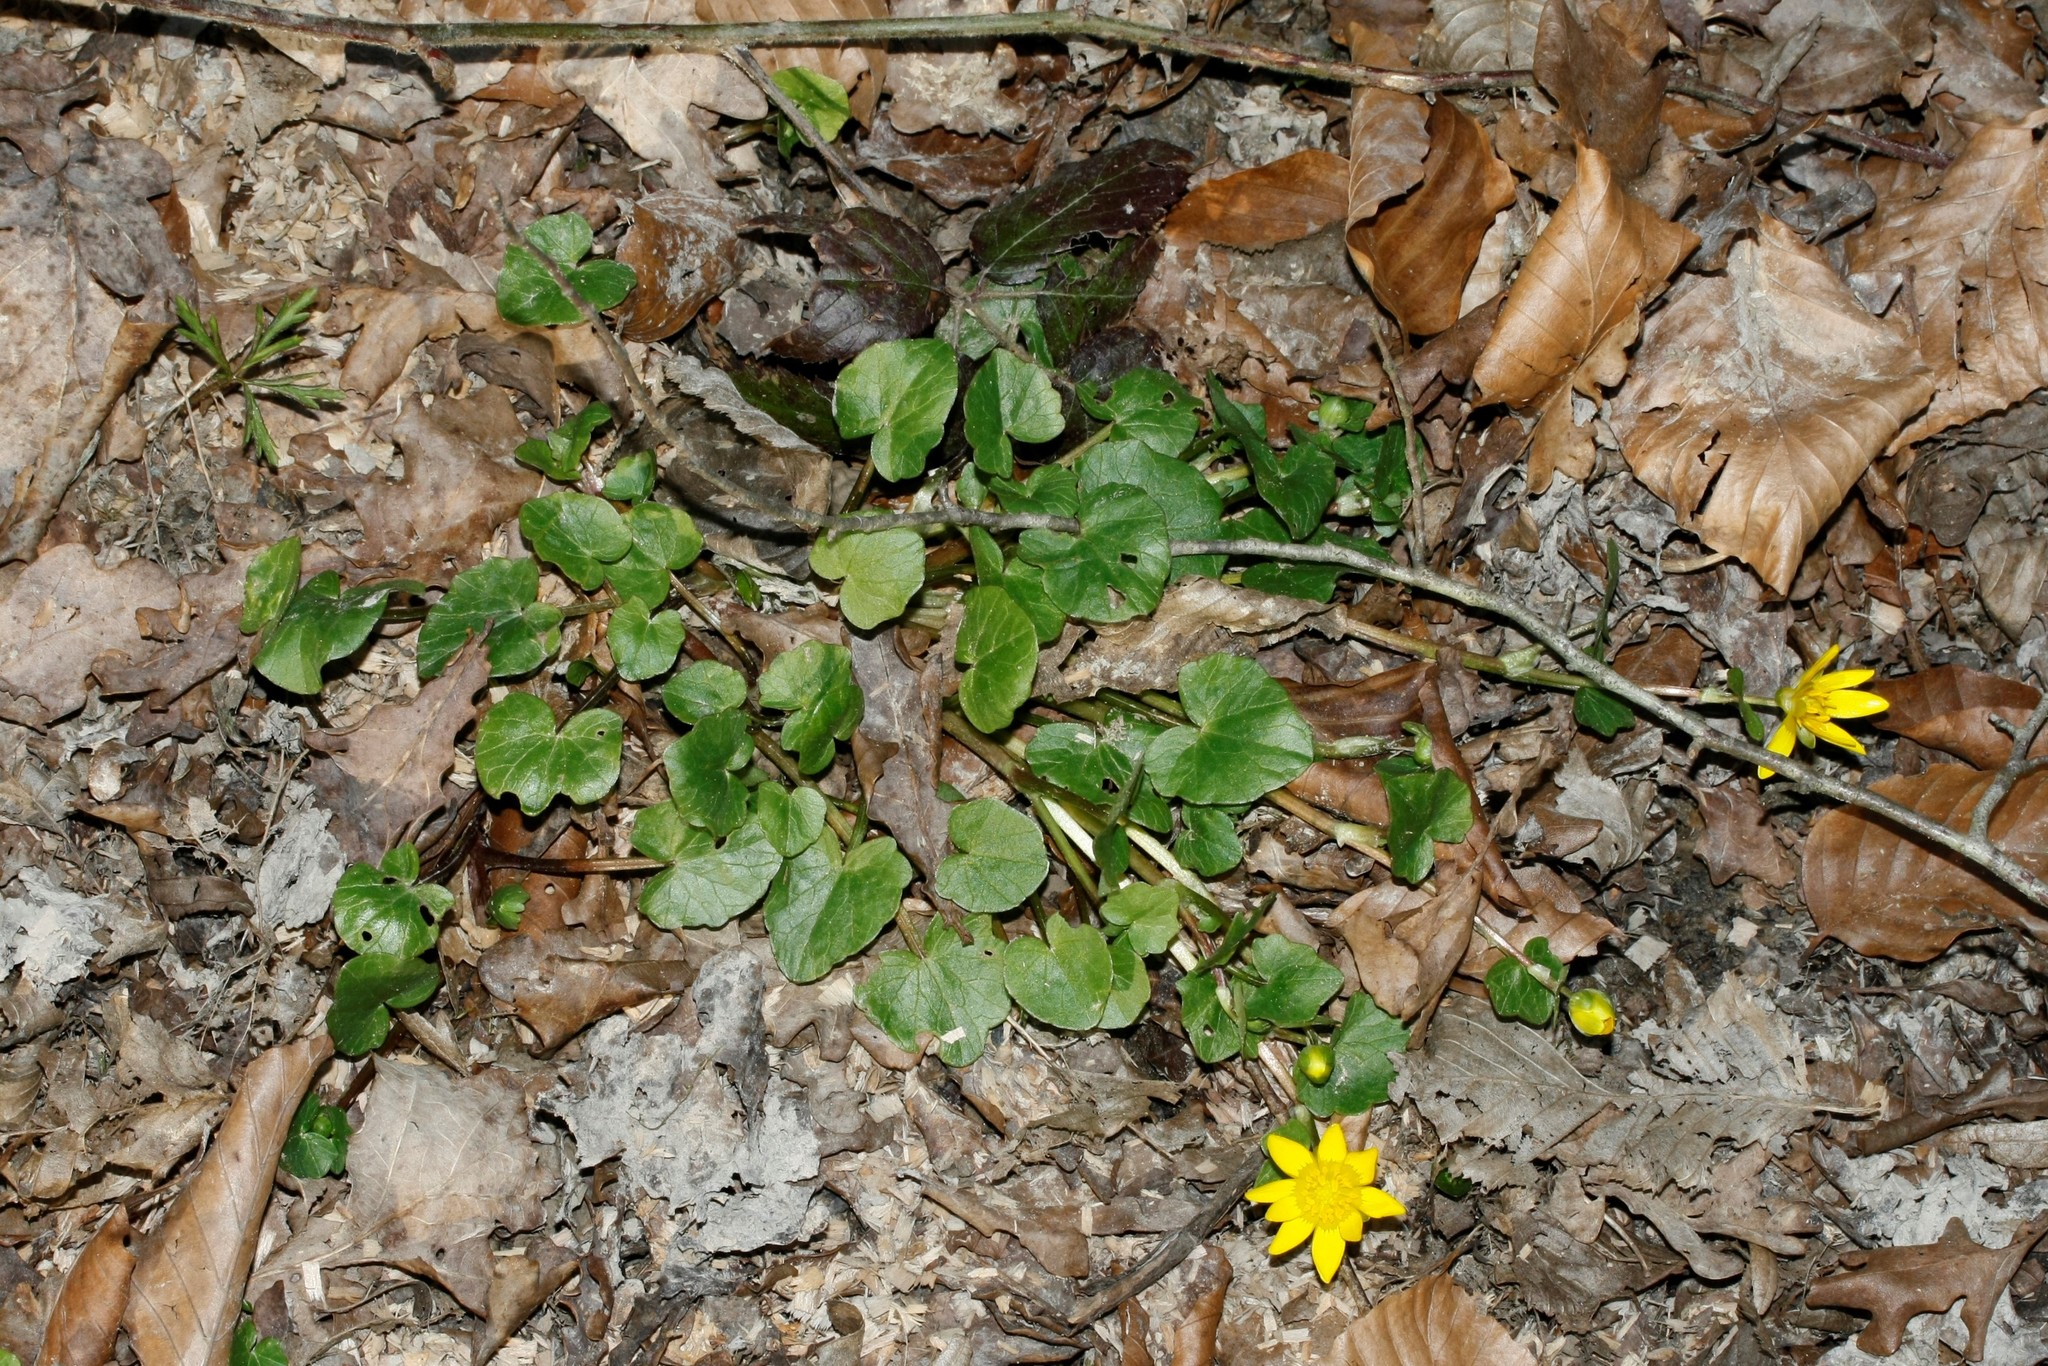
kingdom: Plantae
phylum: Tracheophyta
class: Magnoliopsida
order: Ranunculales
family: Ranunculaceae
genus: Ficaria
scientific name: Ficaria verna
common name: Lesser celandine
